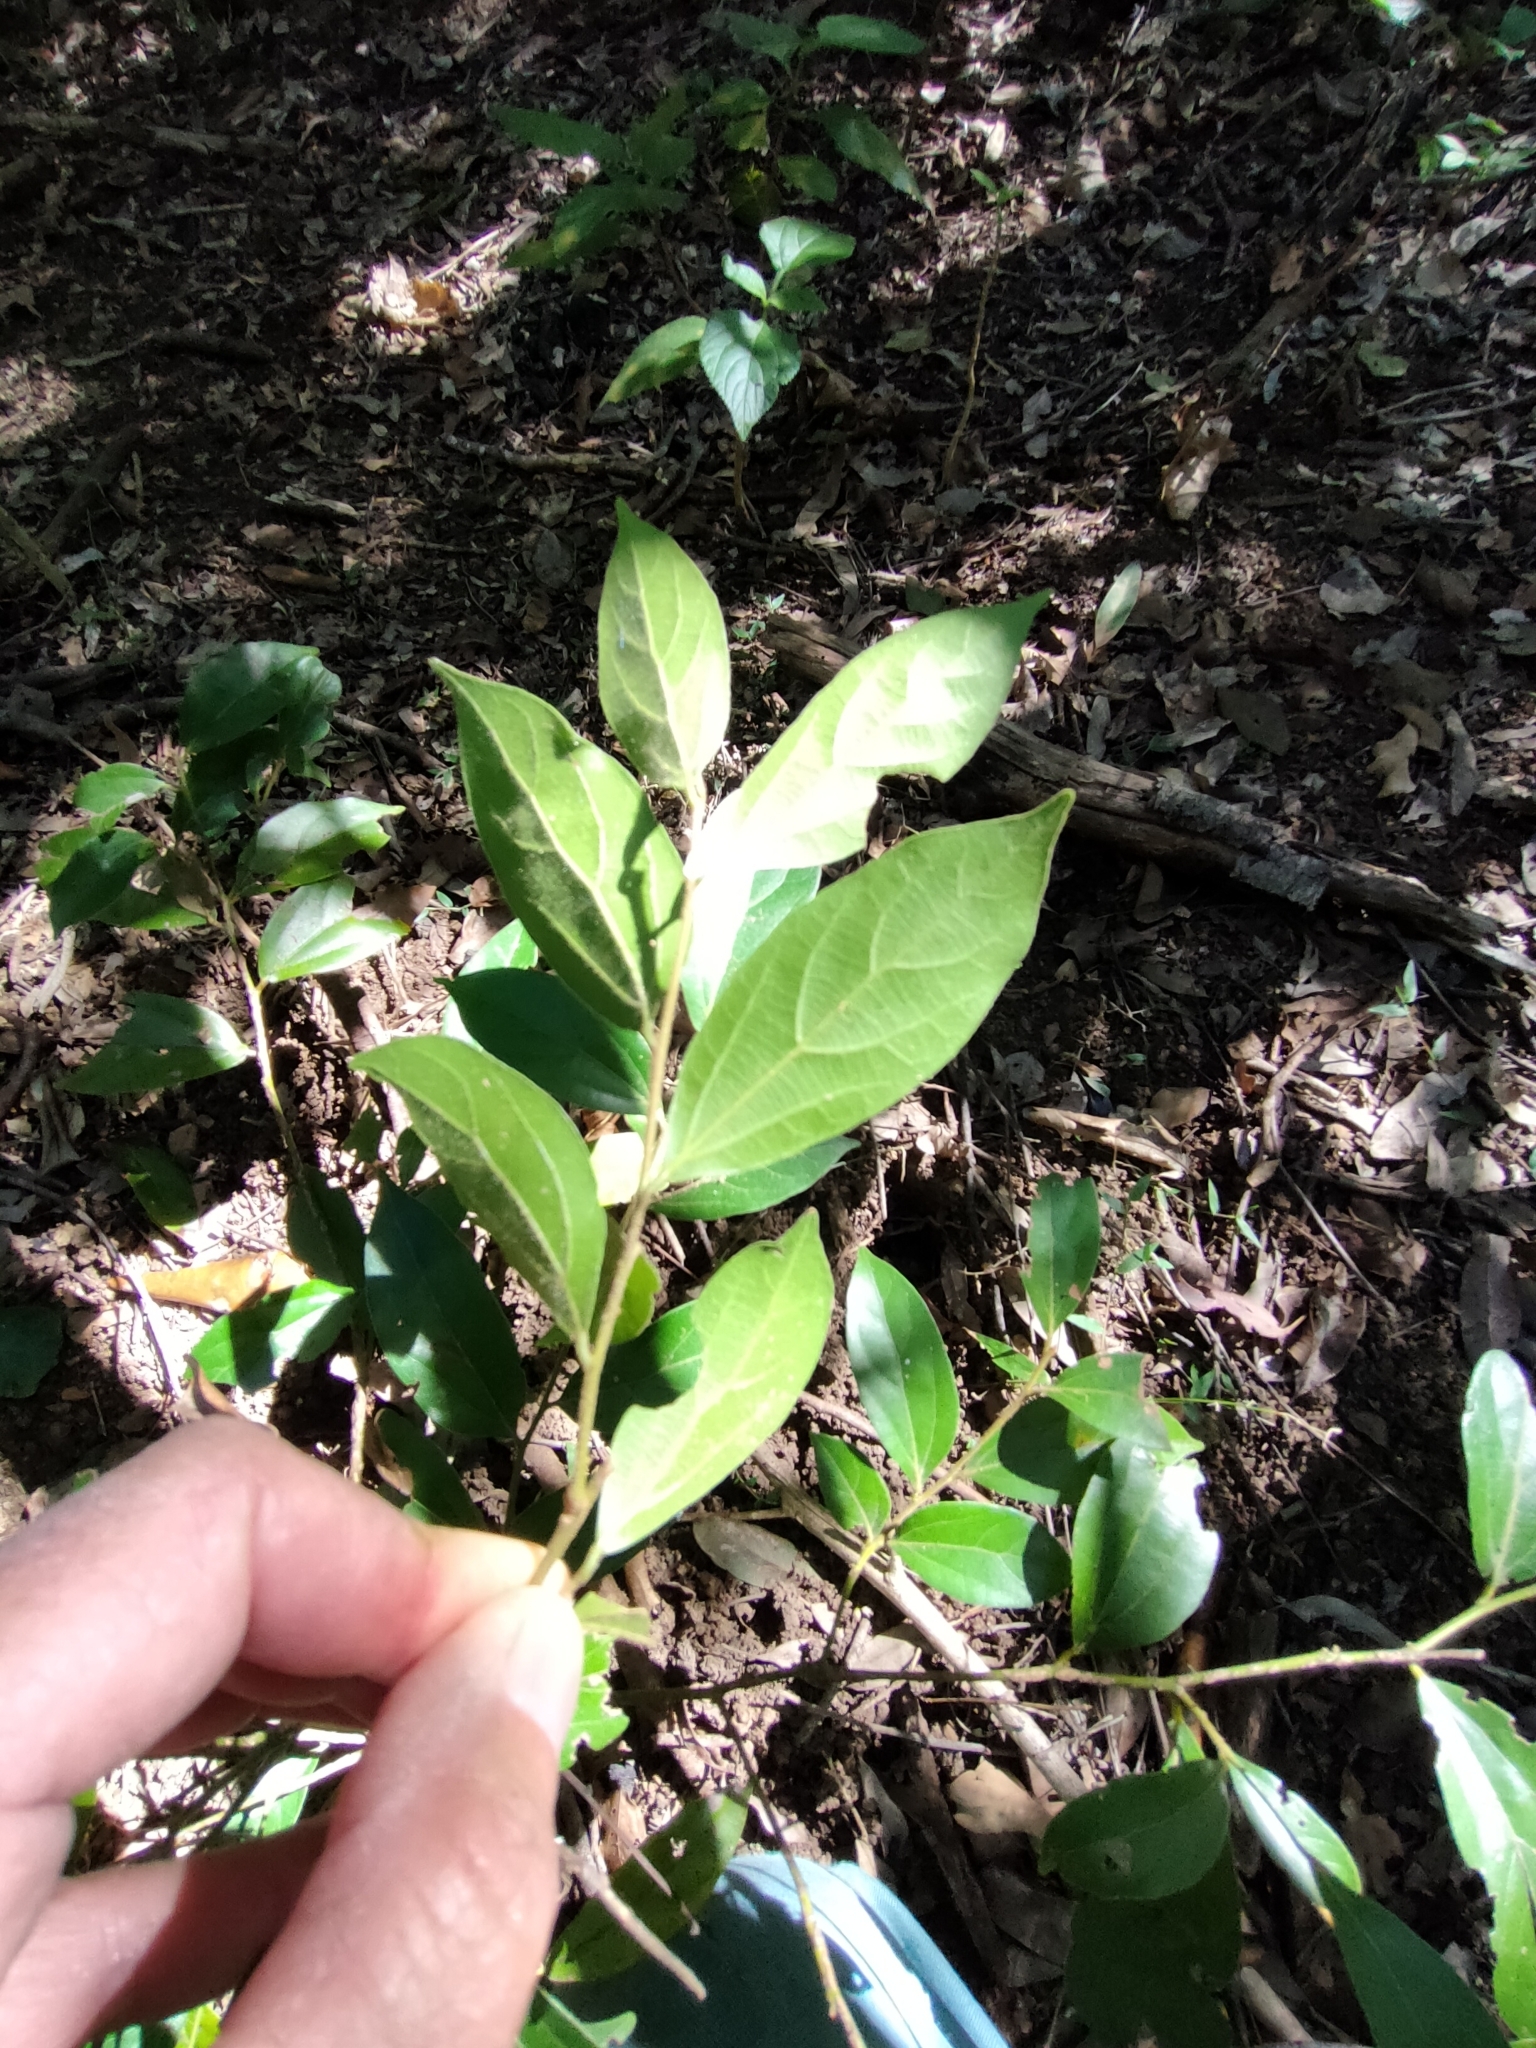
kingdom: Plantae
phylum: Tracheophyta
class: Magnoliopsida
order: Laurales
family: Lauraceae
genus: Cryptocarya
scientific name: Cryptocarya triplinervis
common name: Three-vein cryptocarya
